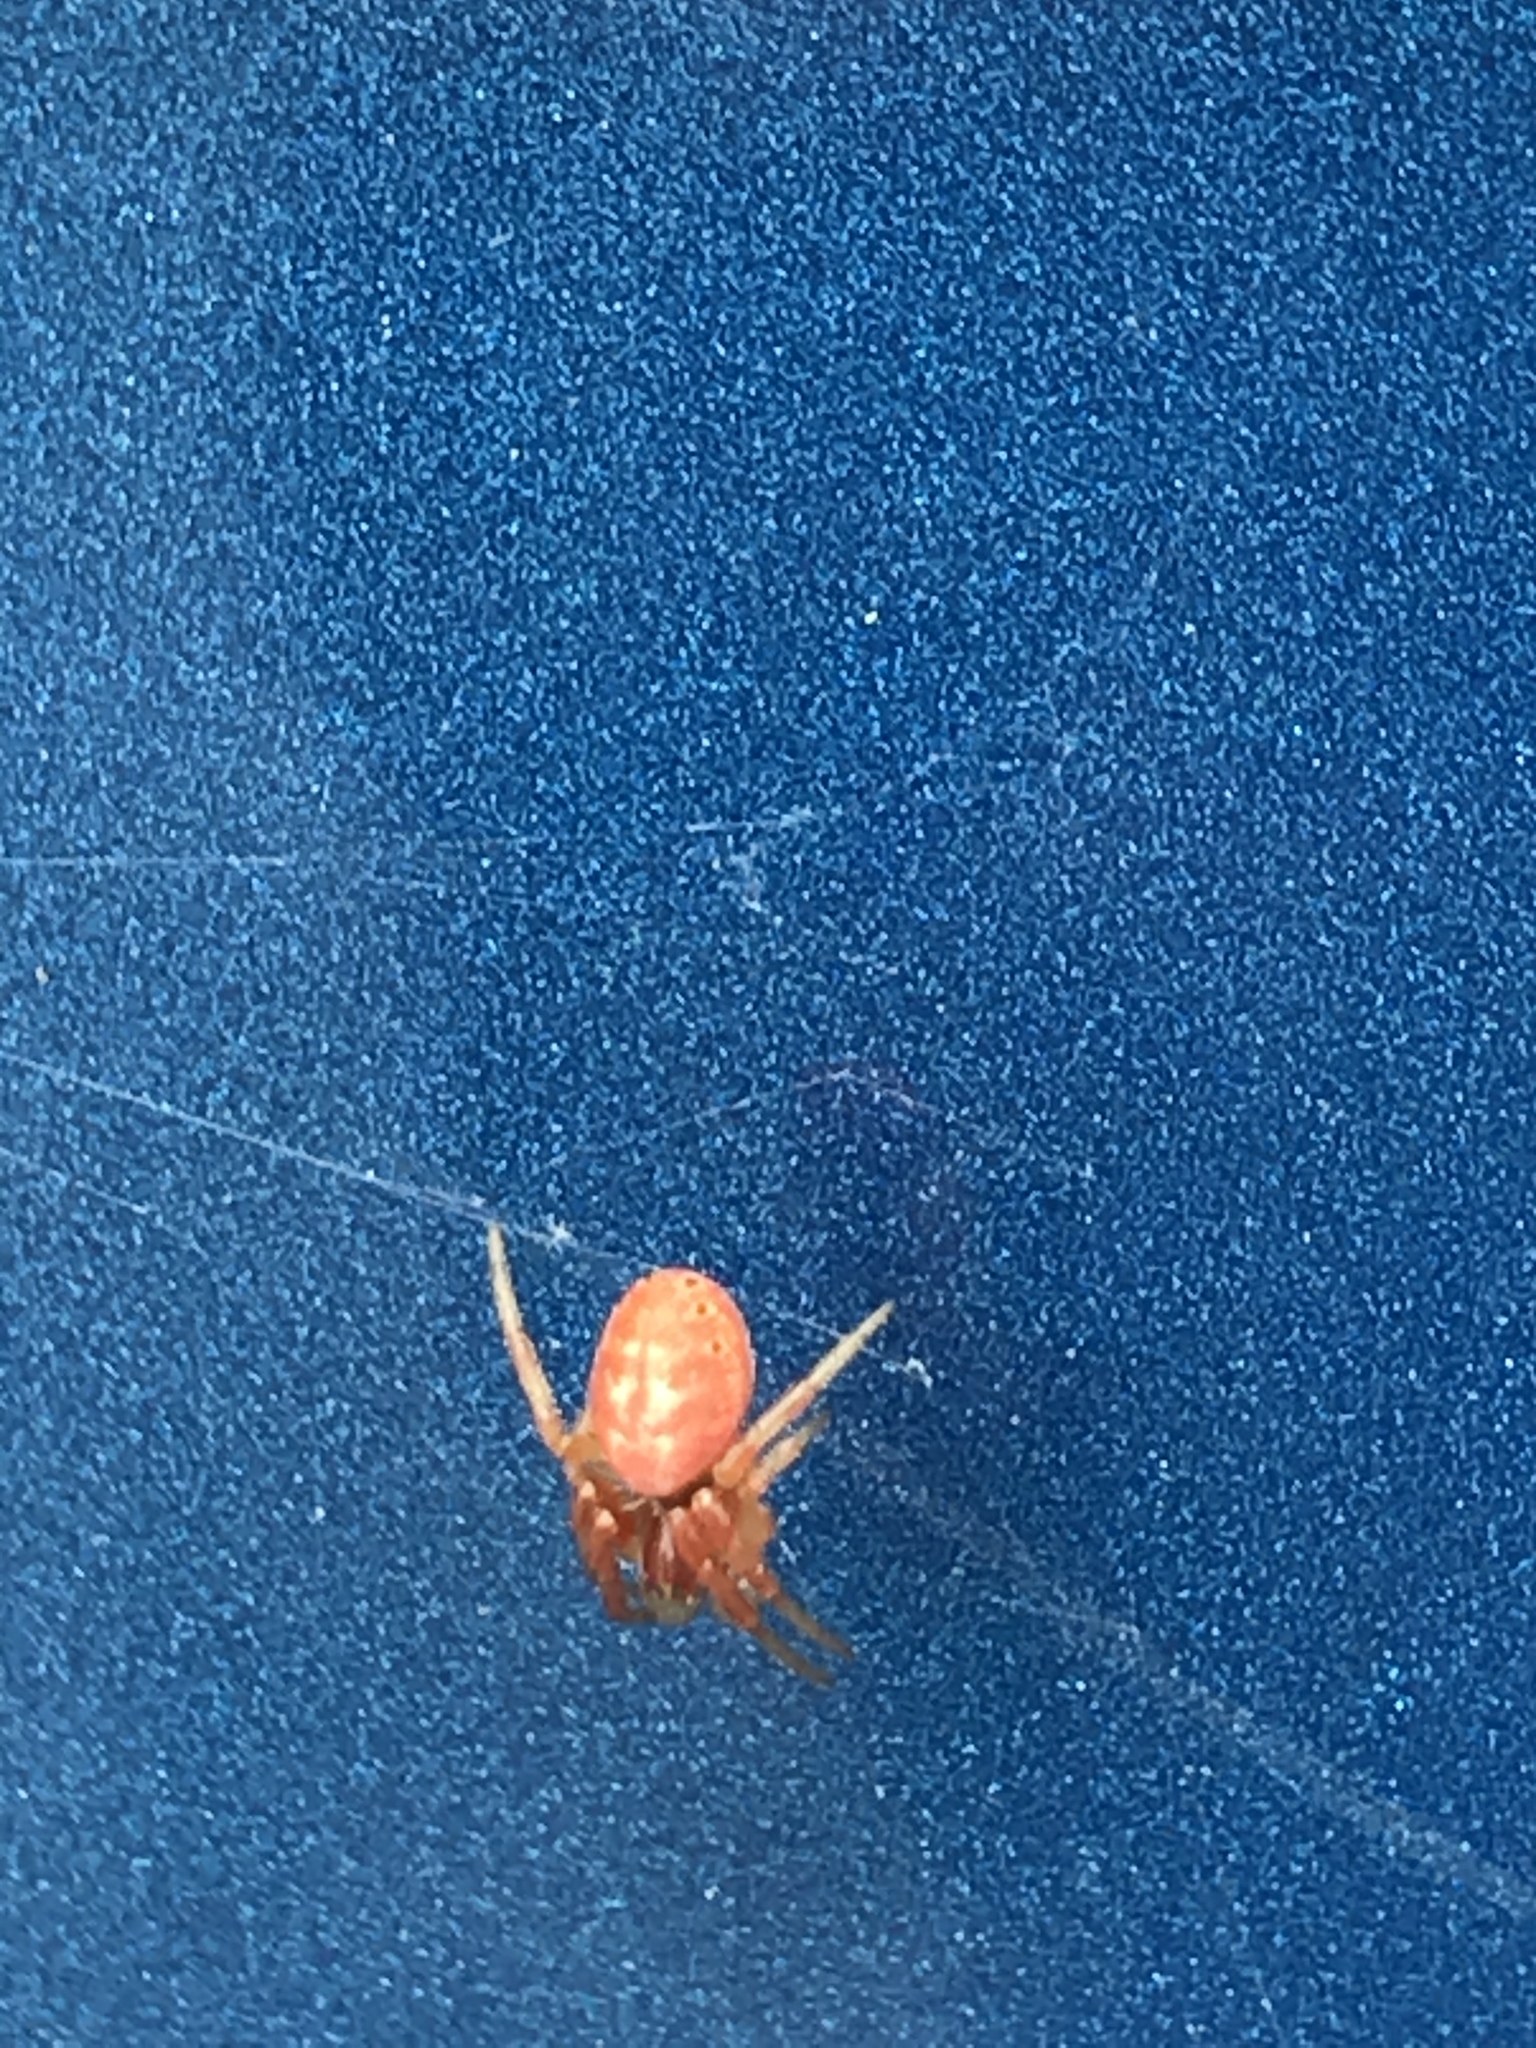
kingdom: Animalia
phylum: Arthropoda
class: Arachnida
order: Araneae
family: Araneidae
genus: Araniella
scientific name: Araniella displicata
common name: Sixspotted orb weaver
